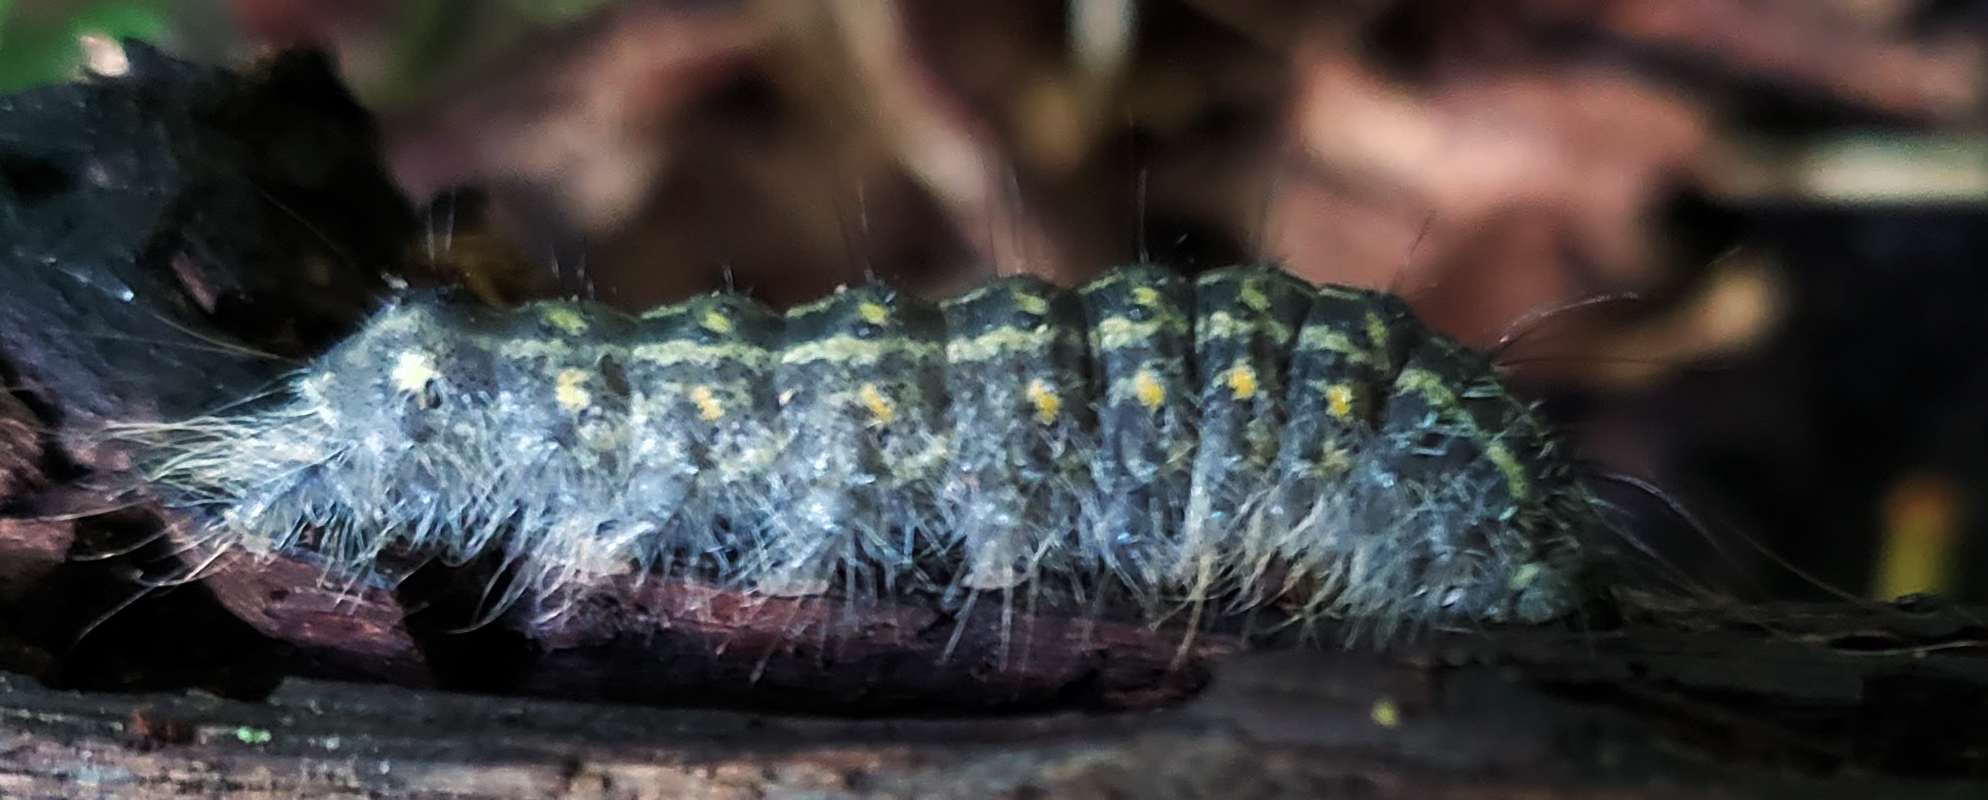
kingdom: Animalia
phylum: Arthropoda
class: Insecta
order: Lepidoptera
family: Noctuidae
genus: Acronicta
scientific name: Acronicta lobeliae
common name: Greater oak dagger
